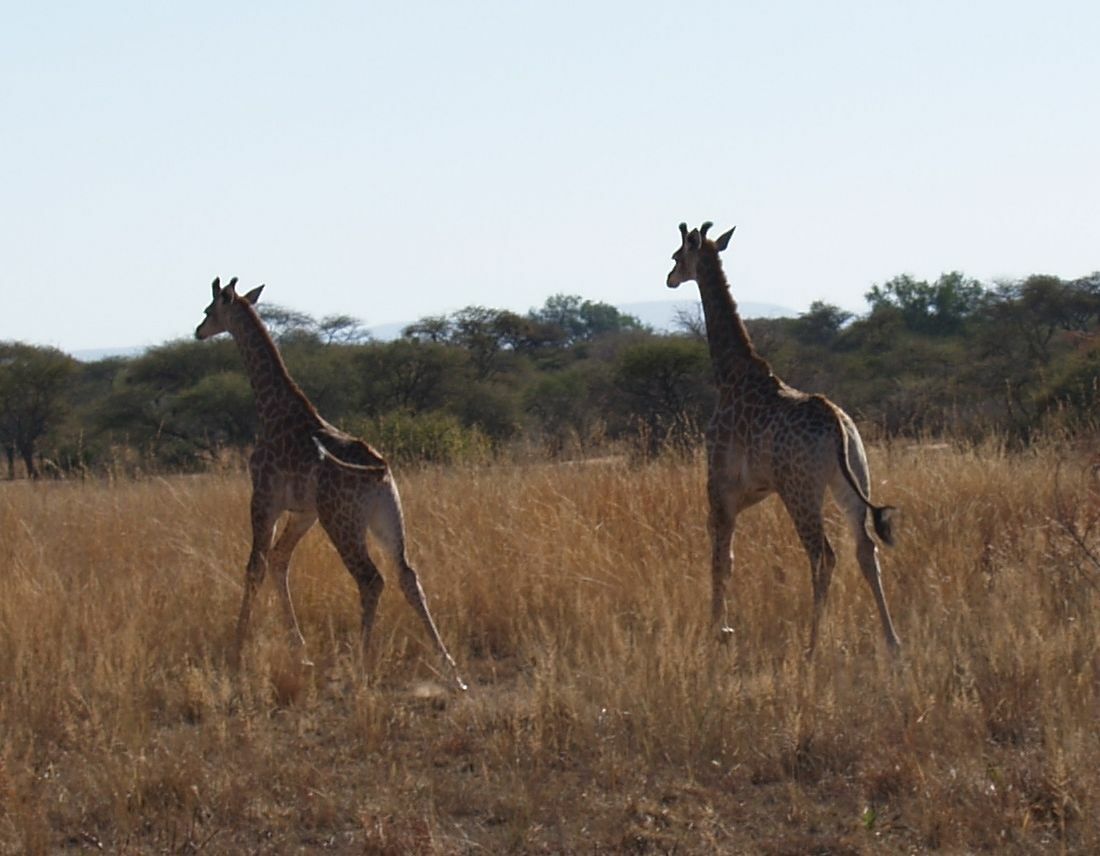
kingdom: Animalia
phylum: Chordata
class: Mammalia
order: Artiodactyla
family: Giraffidae
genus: Giraffa
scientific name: Giraffa giraffa
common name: Southern giraffe
